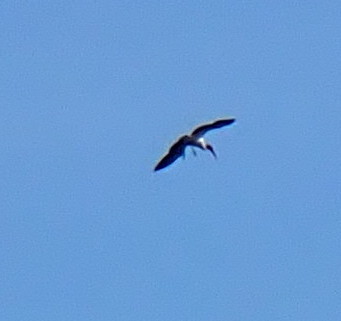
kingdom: Animalia
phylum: Chordata
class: Aves
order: Ciconiiformes
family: Ciconiidae
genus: Mycteria
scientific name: Mycteria americana
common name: Wood stork
